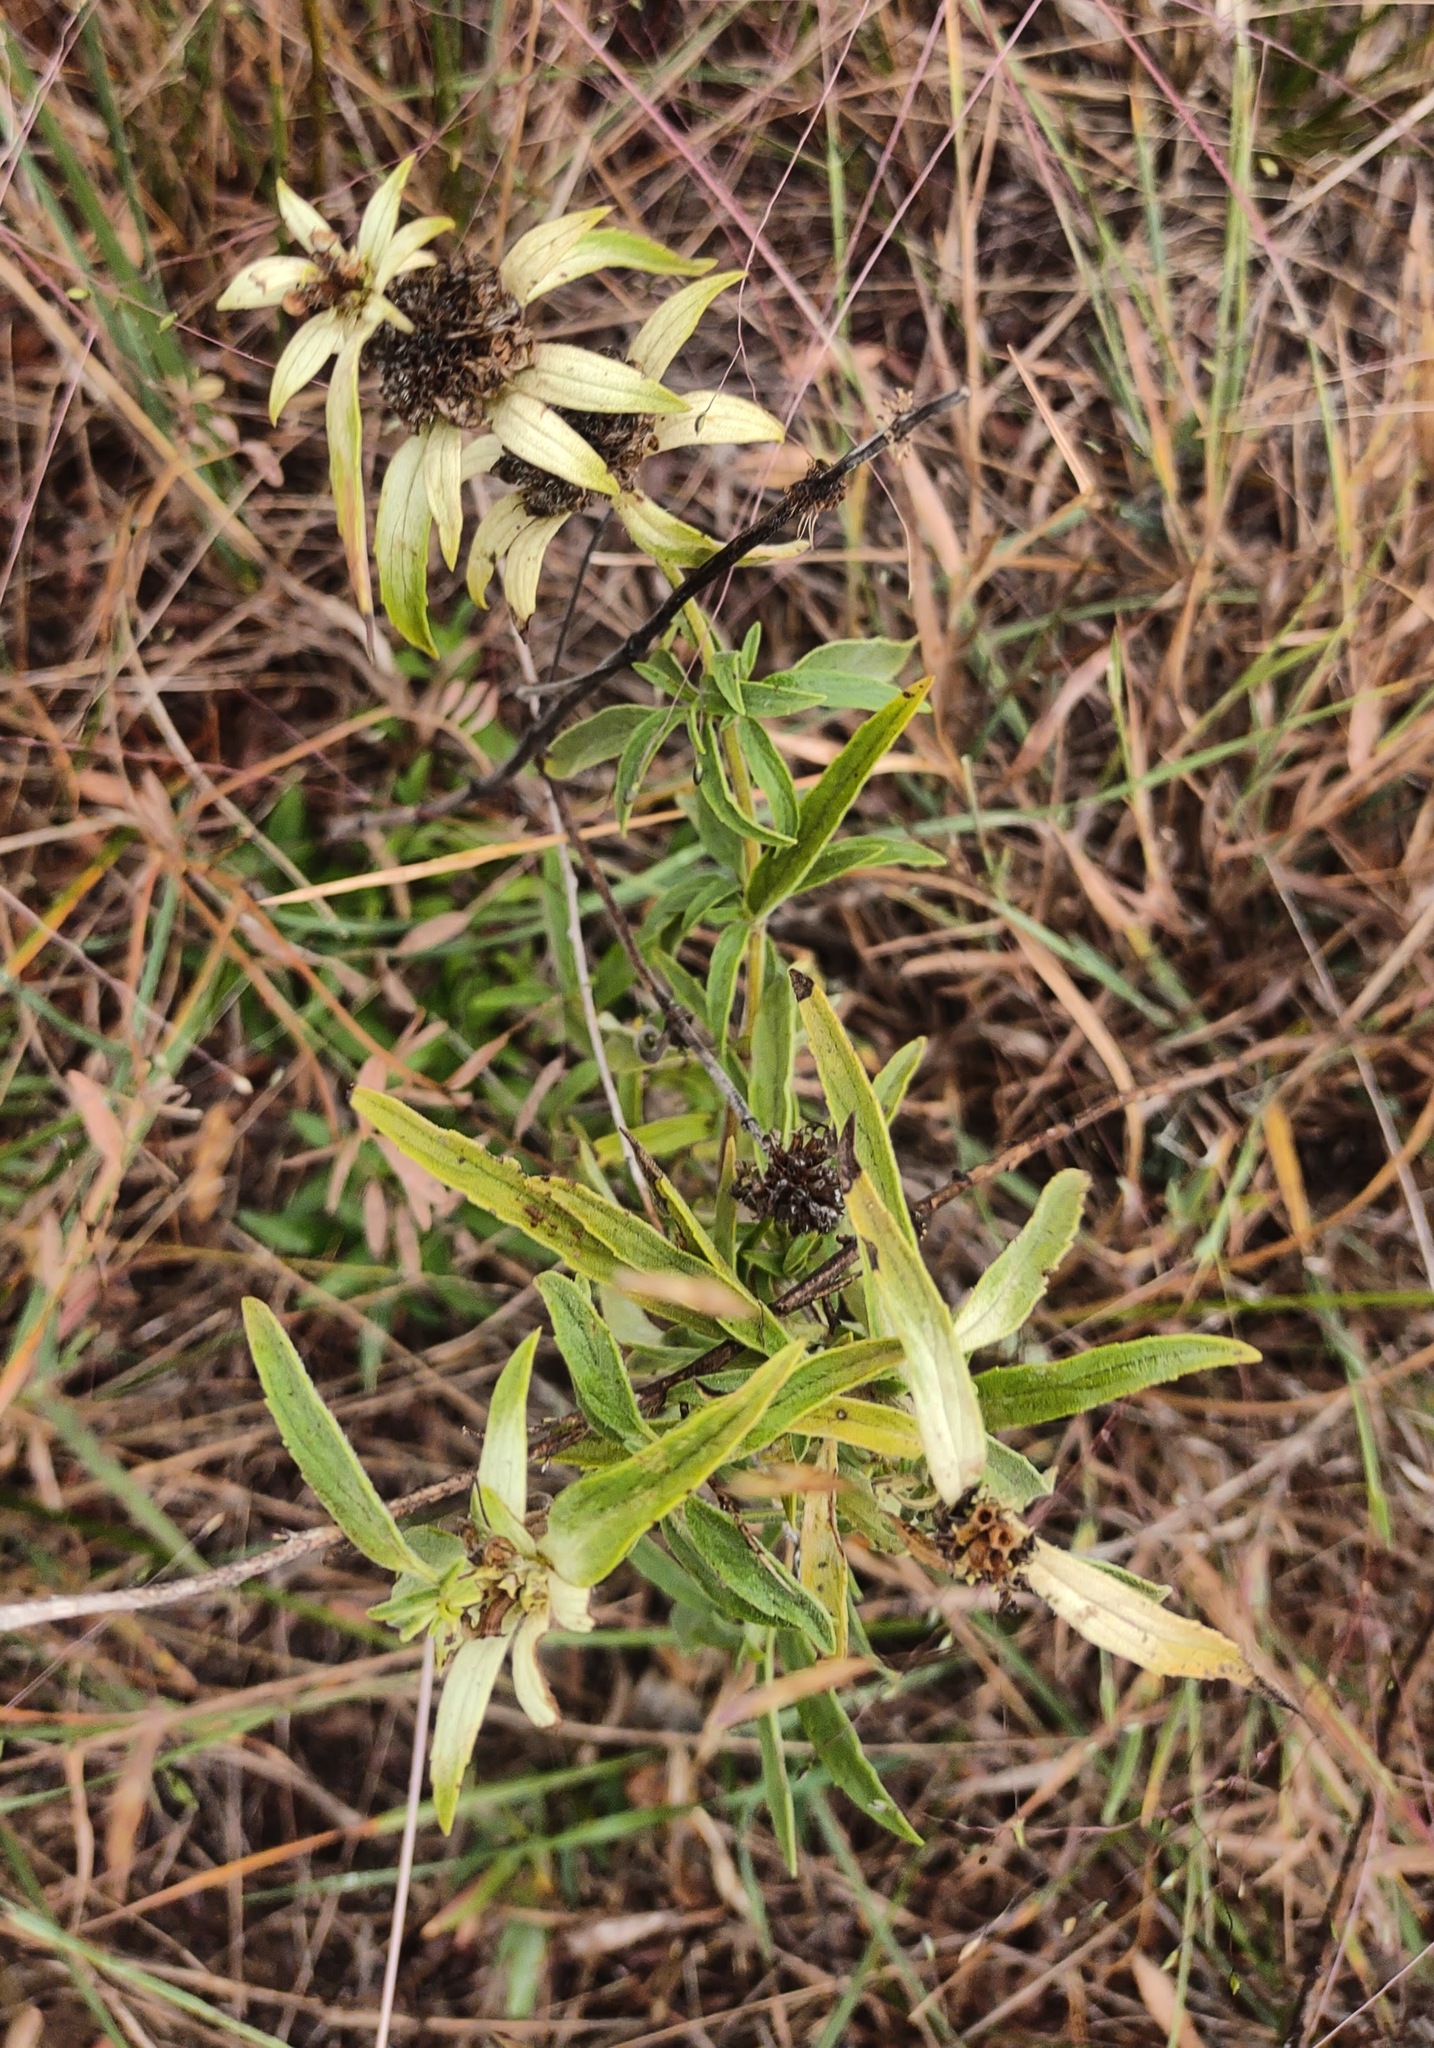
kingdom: Plantae
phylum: Tracheophyta
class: Magnoliopsida
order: Lamiales
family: Lamiaceae
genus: Monarda
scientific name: Monarda punctata
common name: Dotted monarda
